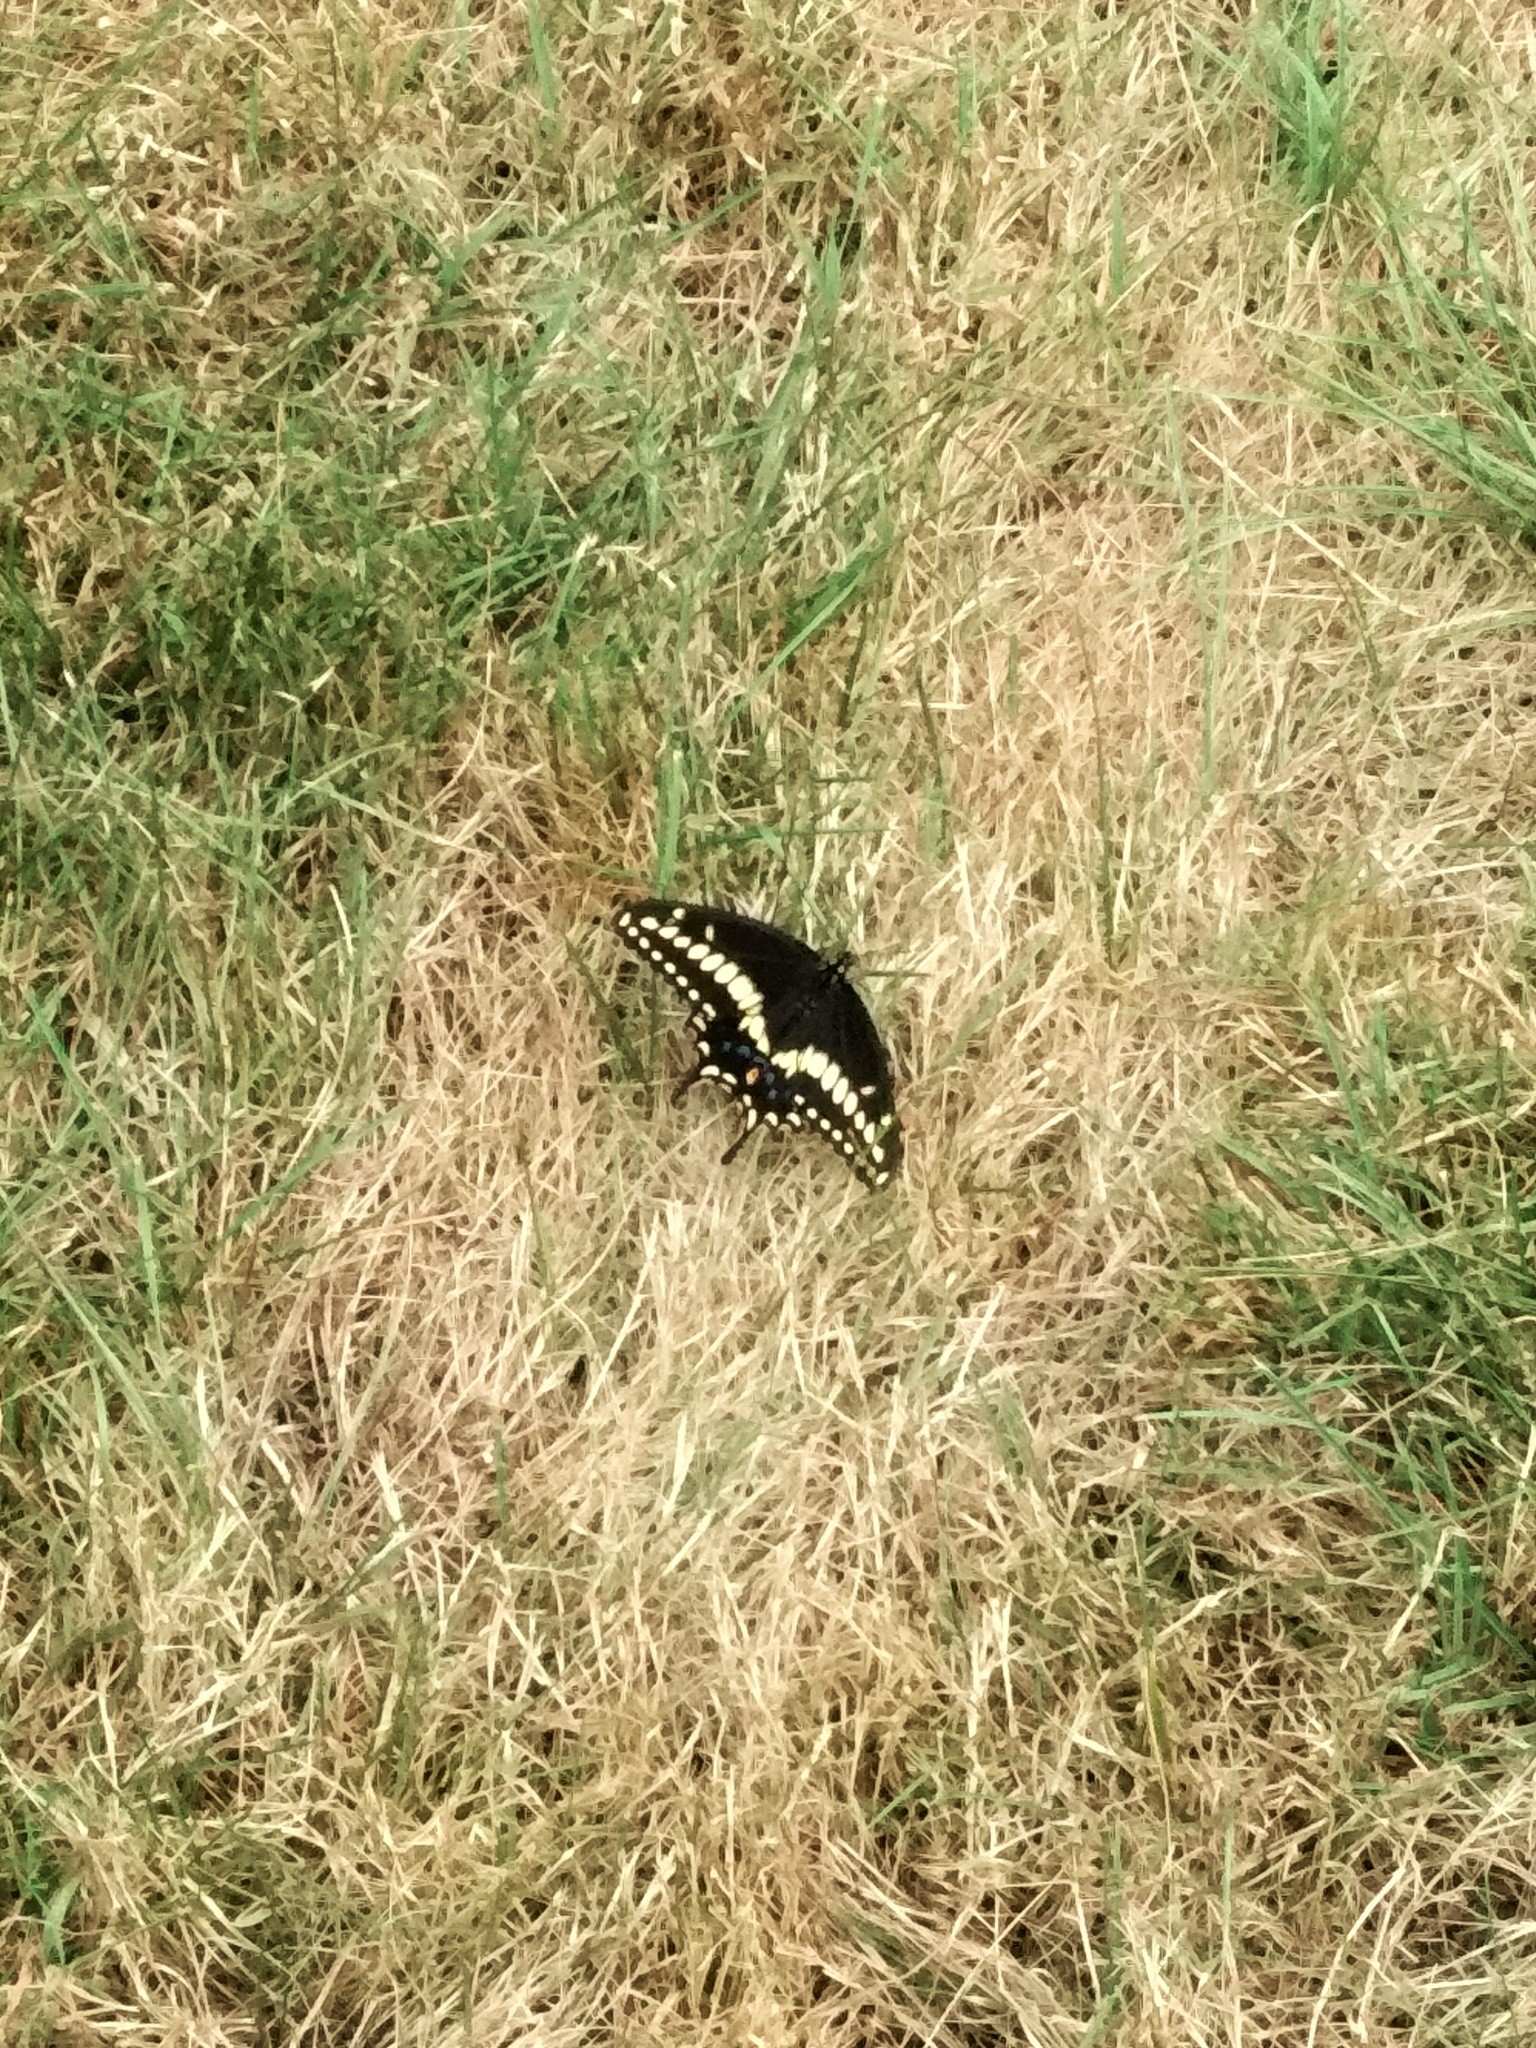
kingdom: Animalia
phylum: Arthropoda
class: Insecta
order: Lepidoptera
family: Papilionidae
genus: Papilio
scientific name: Papilio polyxenes
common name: Black swallowtail
